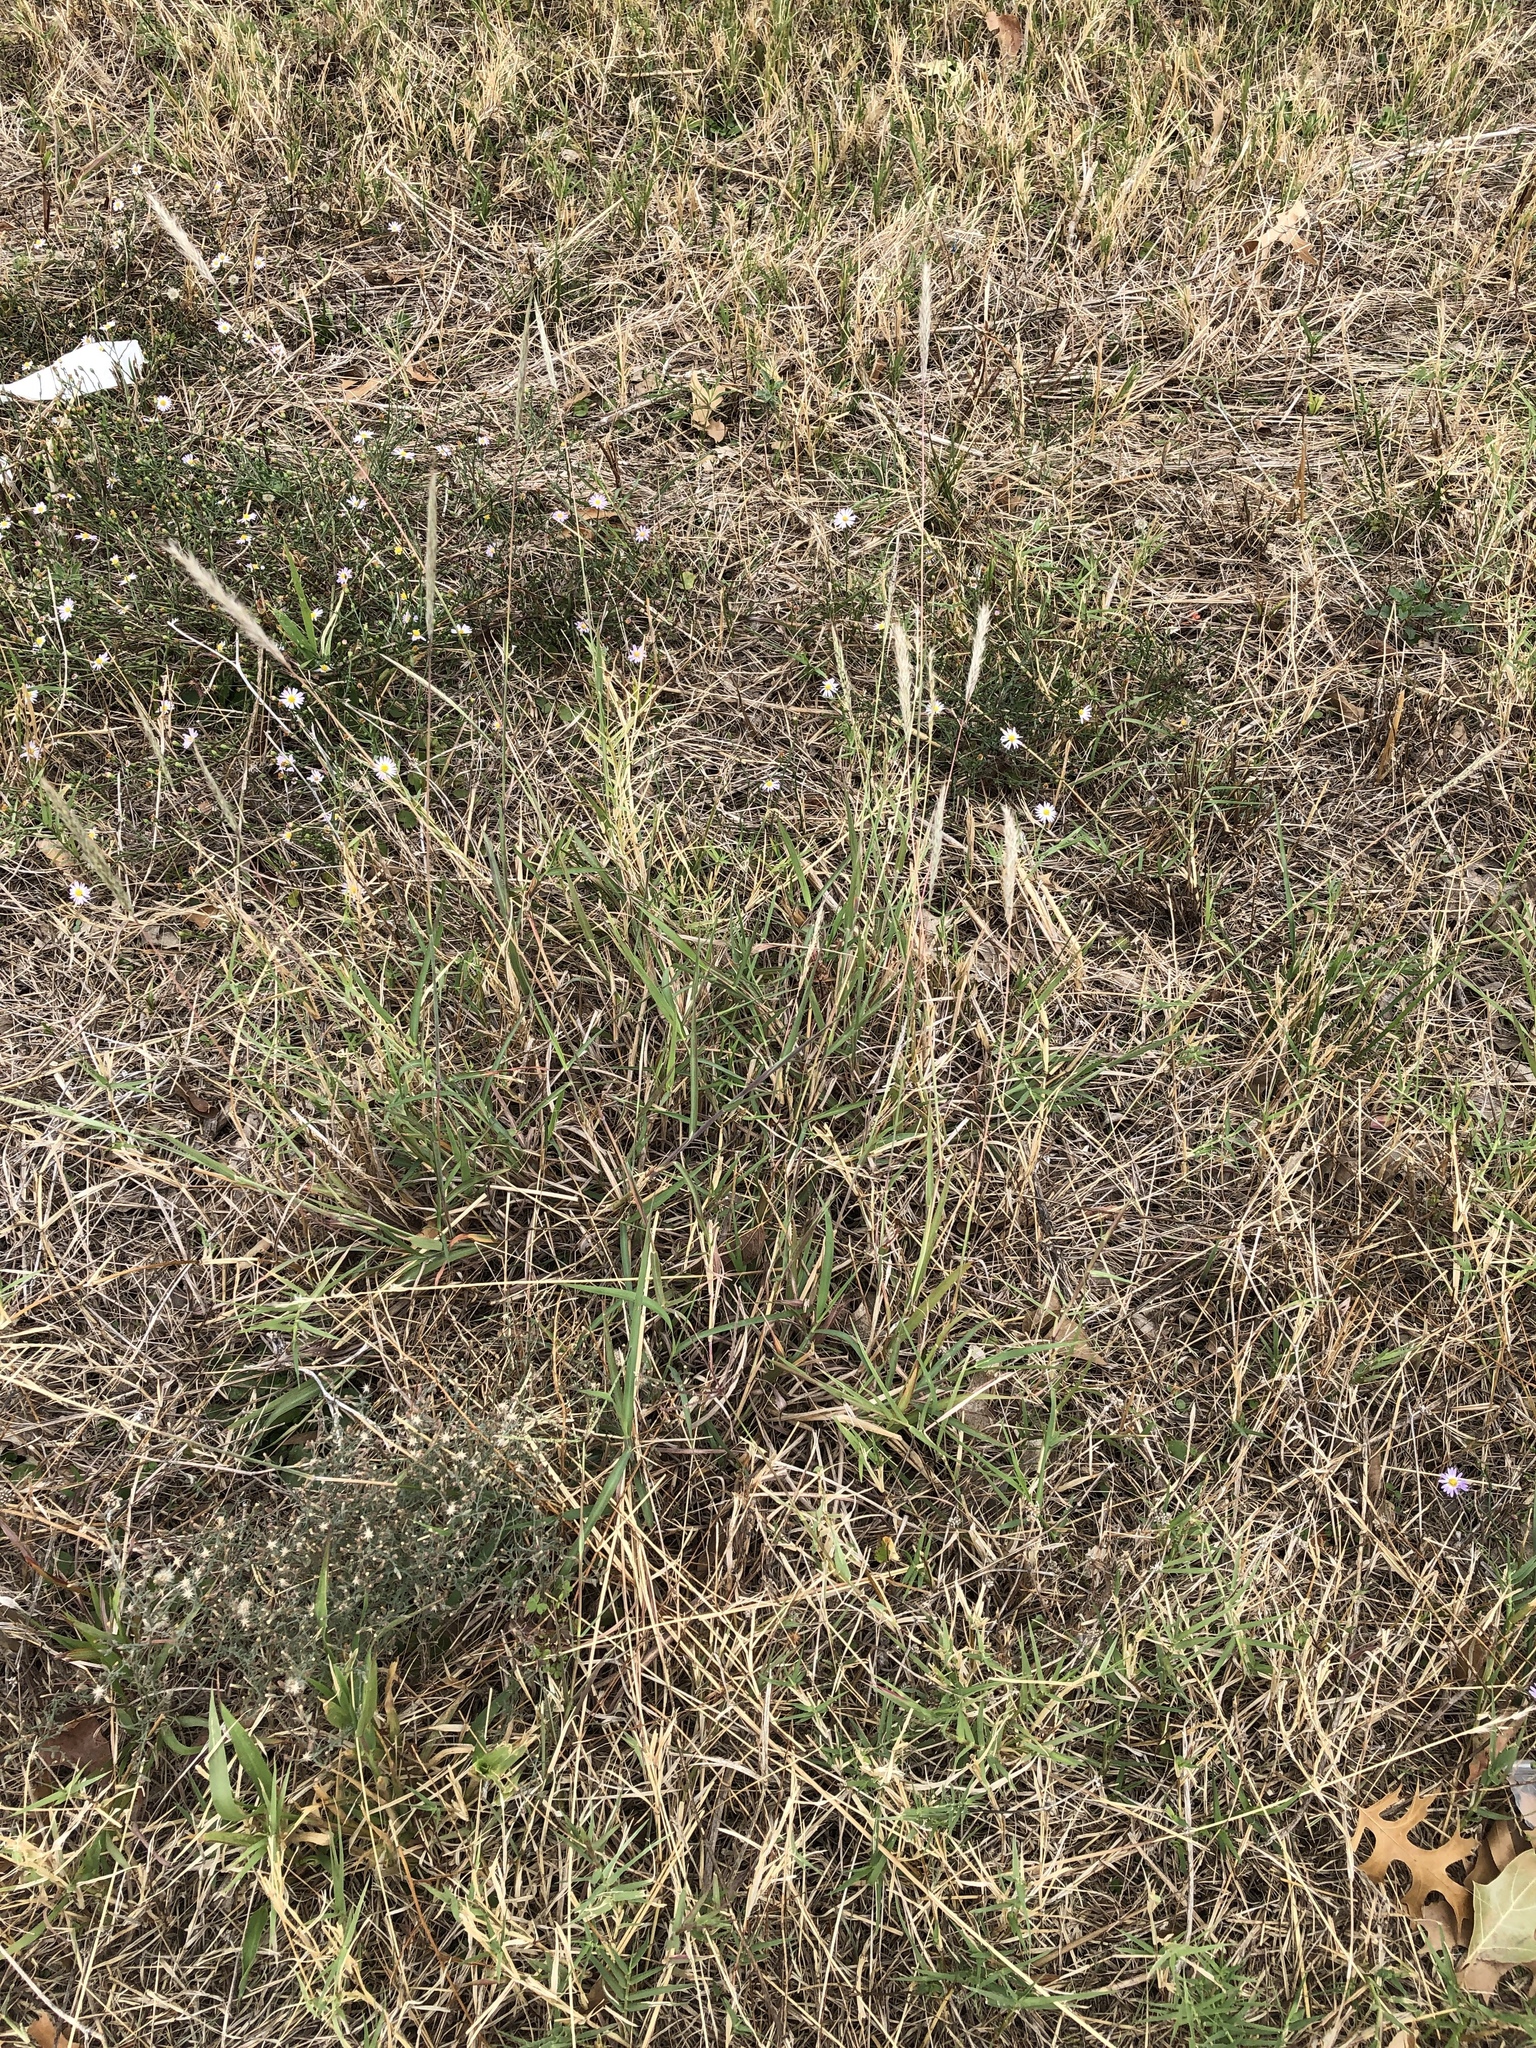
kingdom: Plantae
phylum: Tracheophyta
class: Liliopsida
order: Poales
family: Poaceae
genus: Bothriochloa
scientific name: Bothriochloa torreyana
